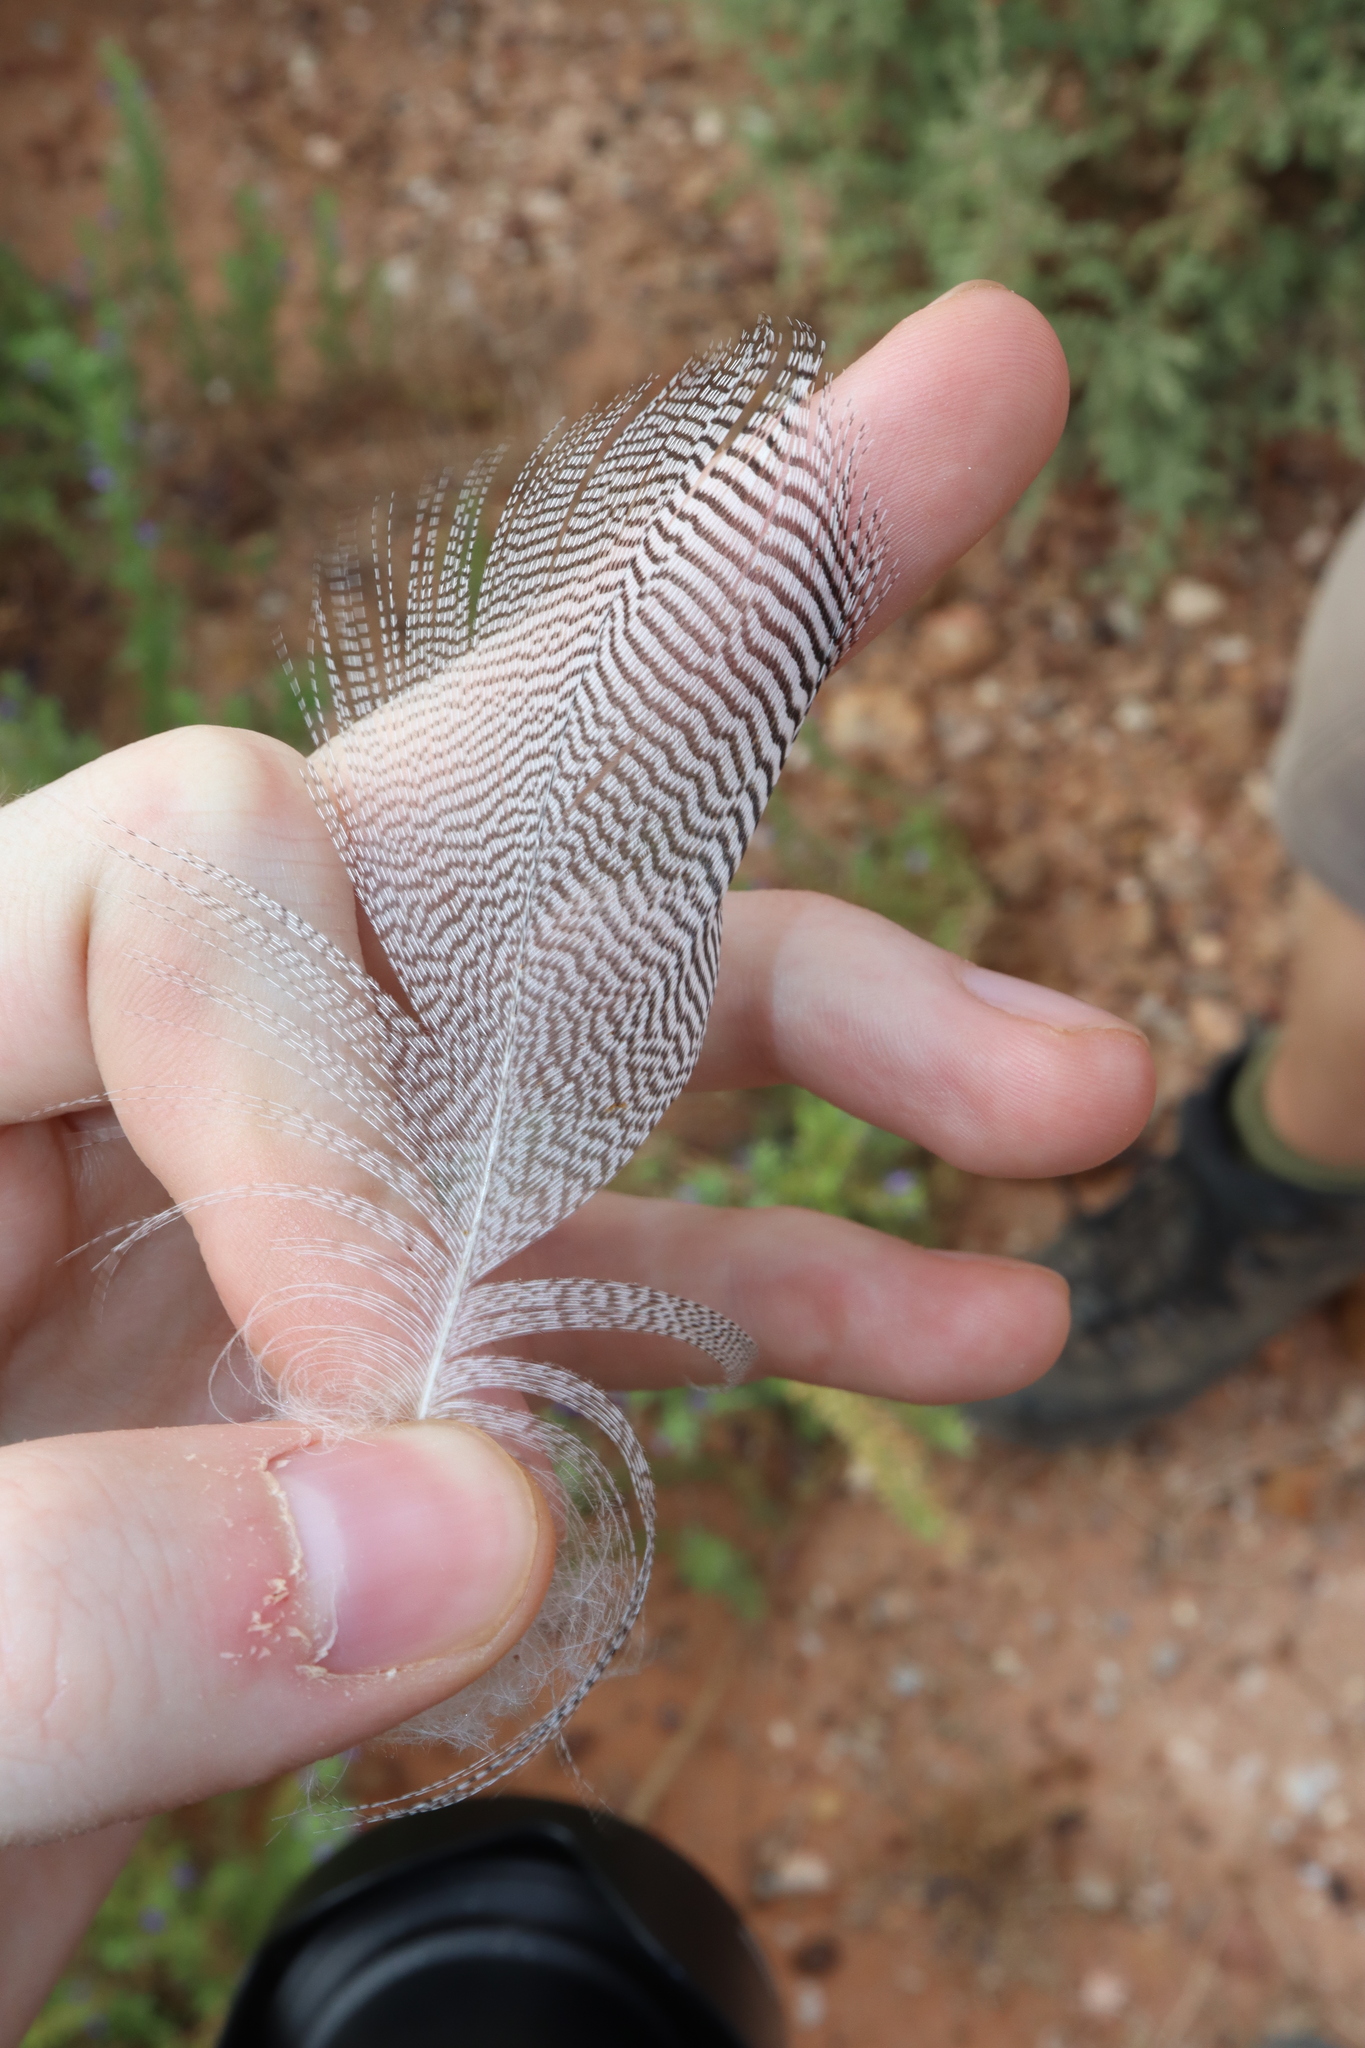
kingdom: Animalia
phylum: Chordata
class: Aves
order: Anseriformes
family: Anatidae
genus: Chenonetta
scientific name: Chenonetta jubata
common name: Maned duck
